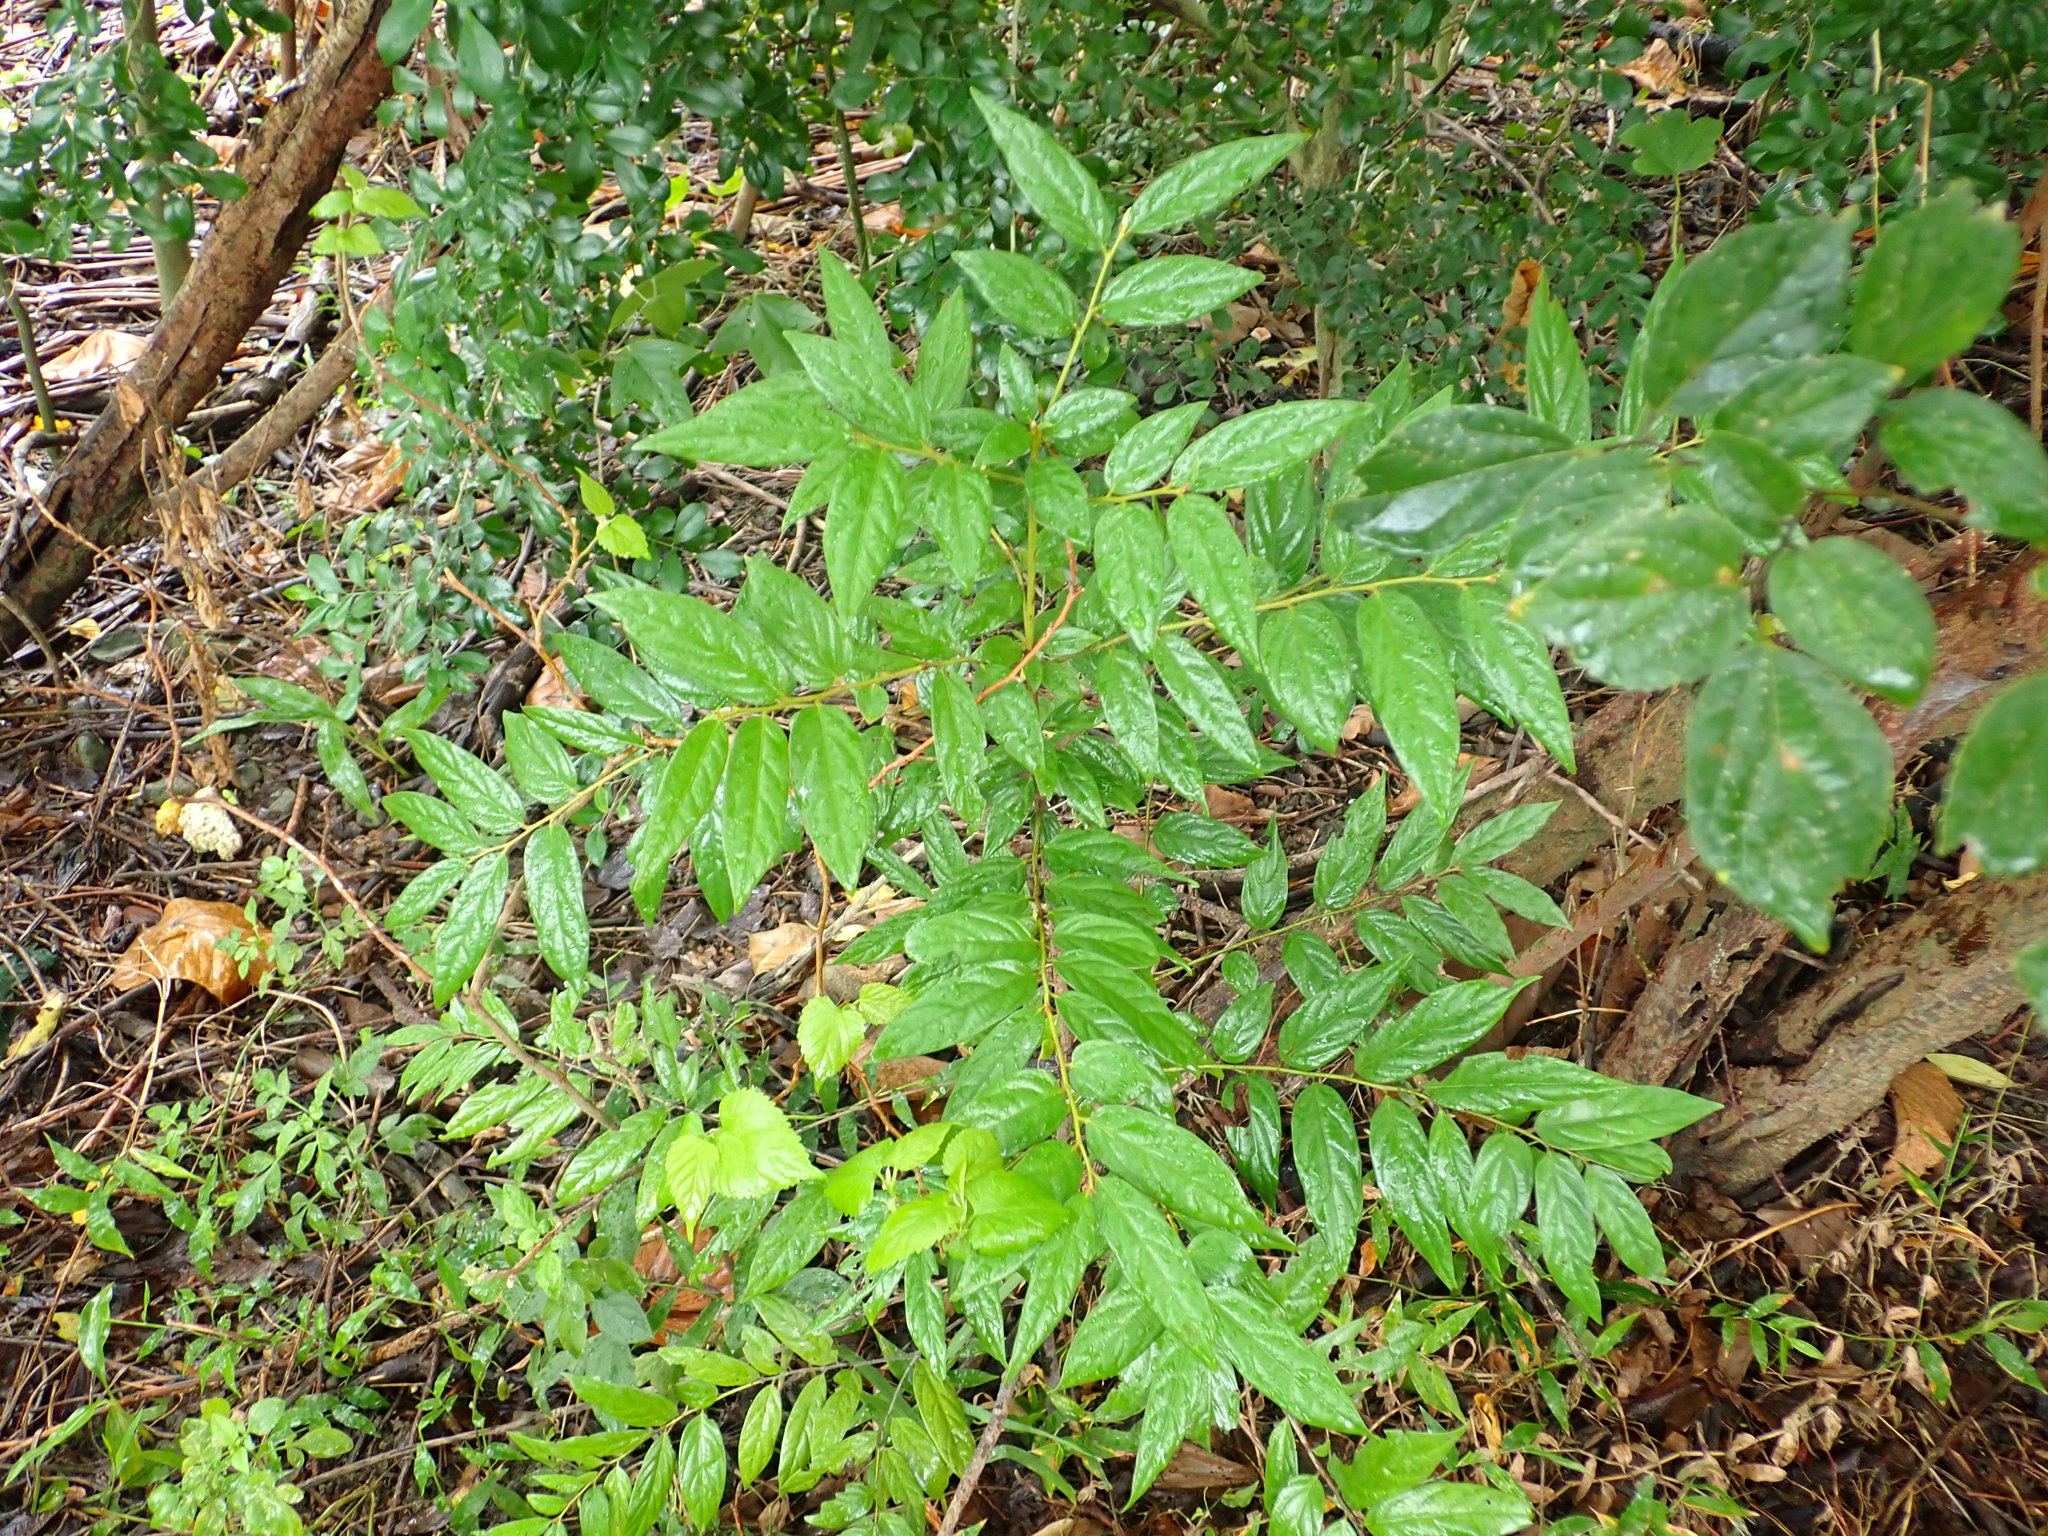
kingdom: Plantae
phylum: Tracheophyta
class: Magnoliopsida
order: Ericales
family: Ebenaceae
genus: Diospyros
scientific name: Diospyros eriantha
